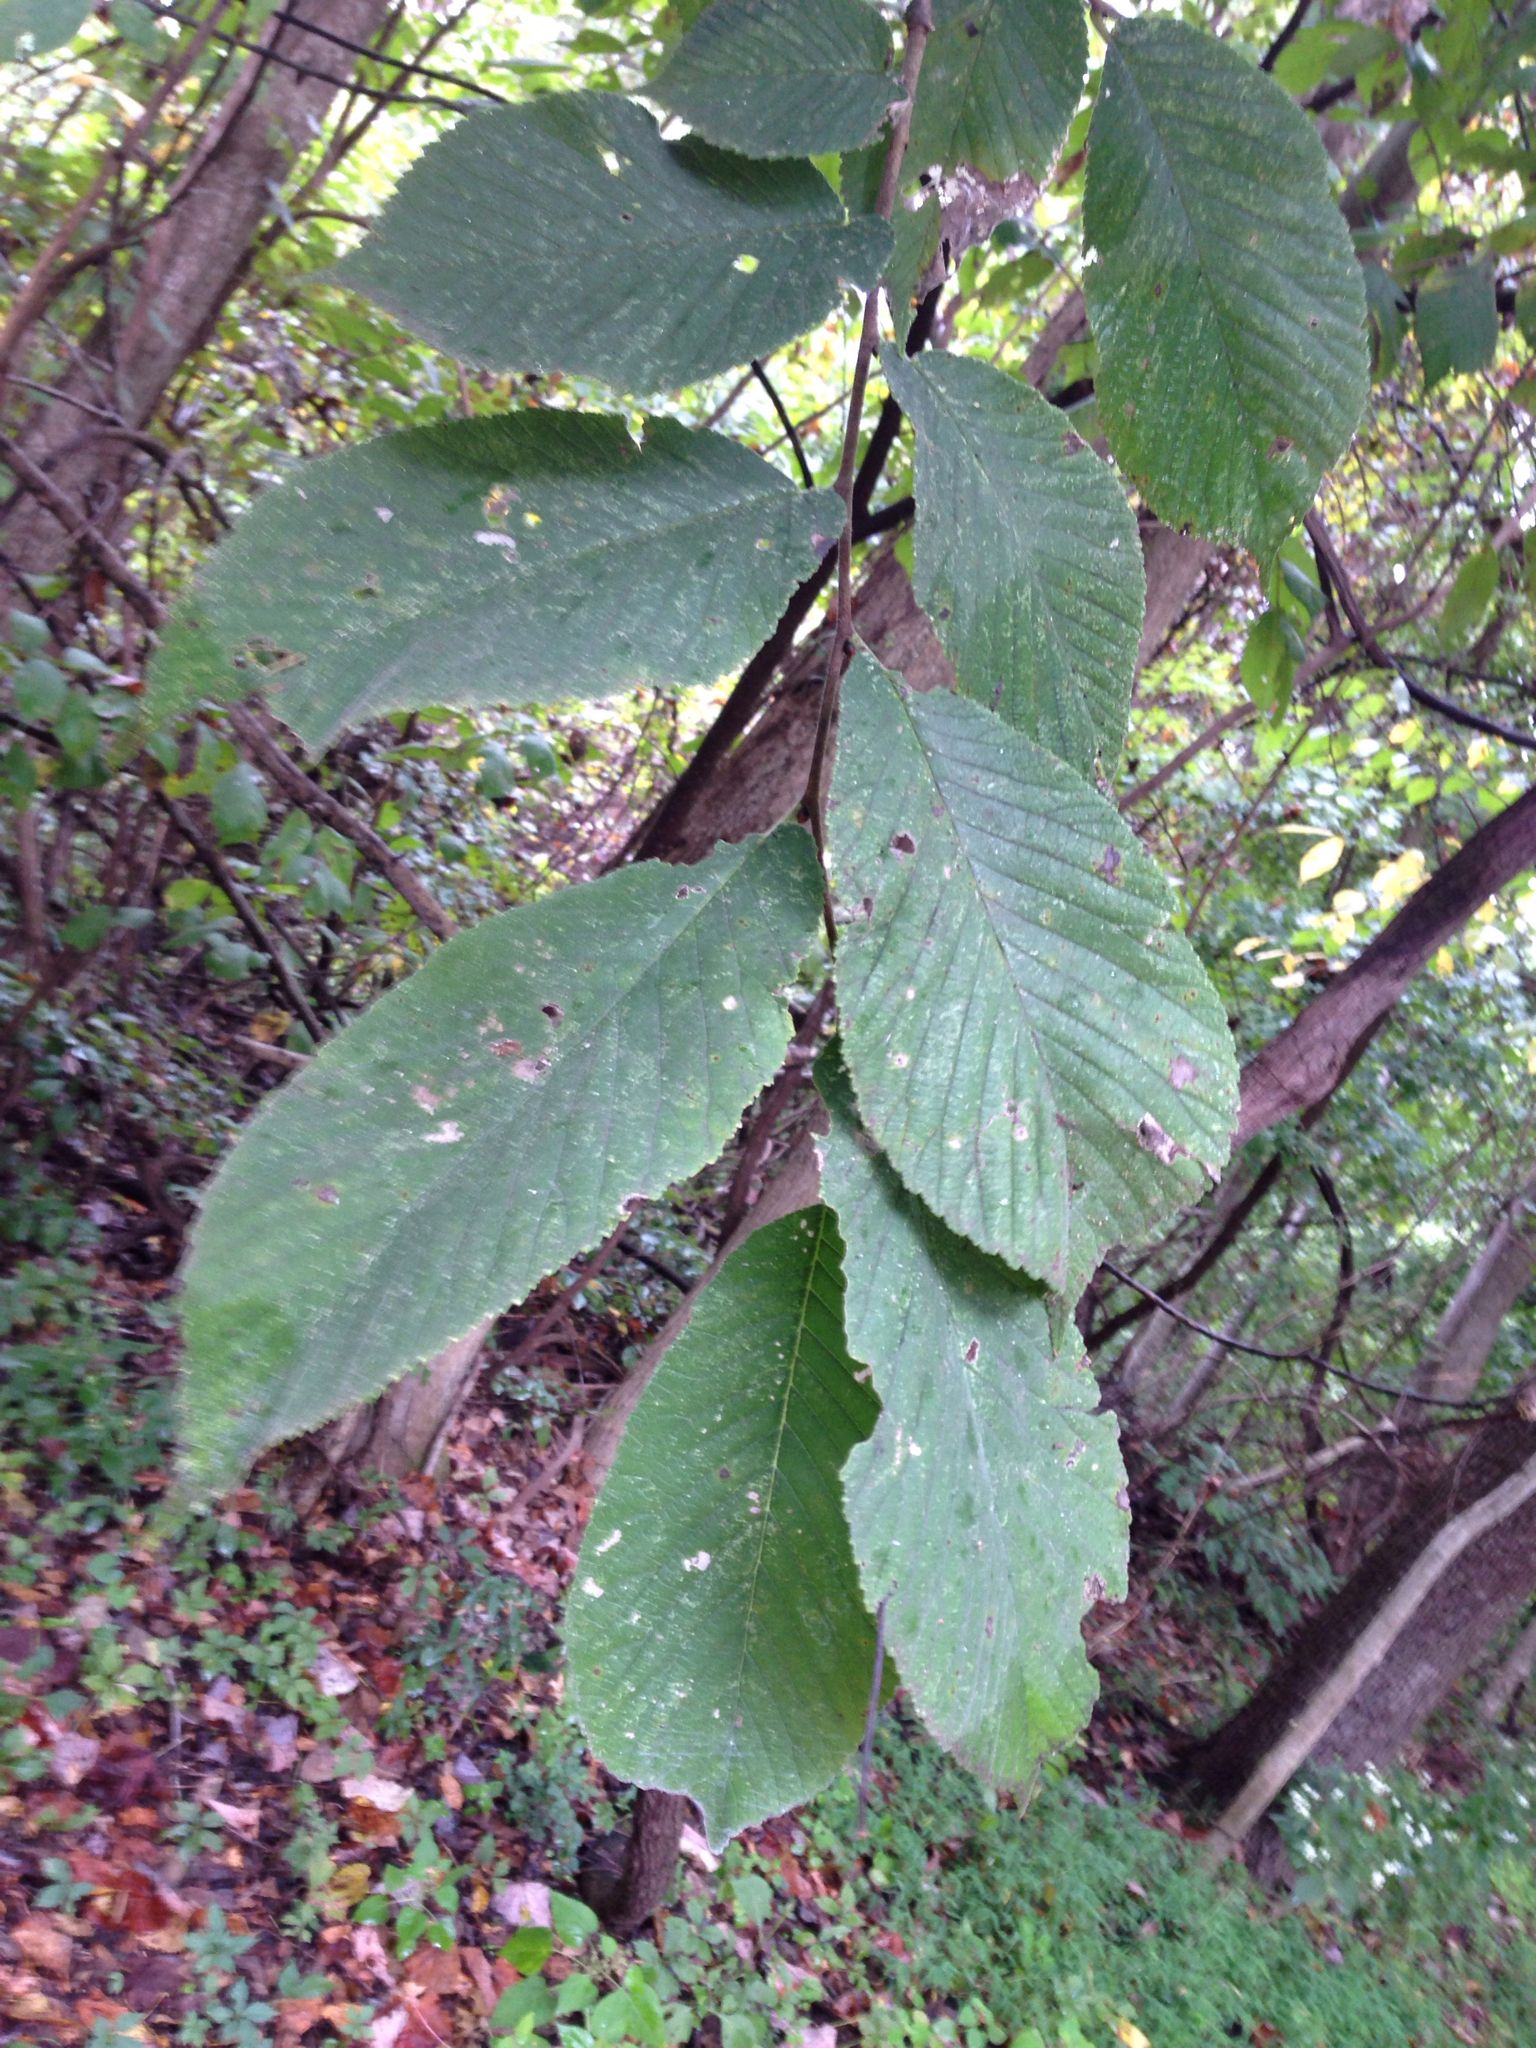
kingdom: Plantae
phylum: Tracheophyta
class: Magnoliopsida
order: Rosales
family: Ulmaceae
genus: Ulmus
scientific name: Ulmus rubra
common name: Slippery elm
